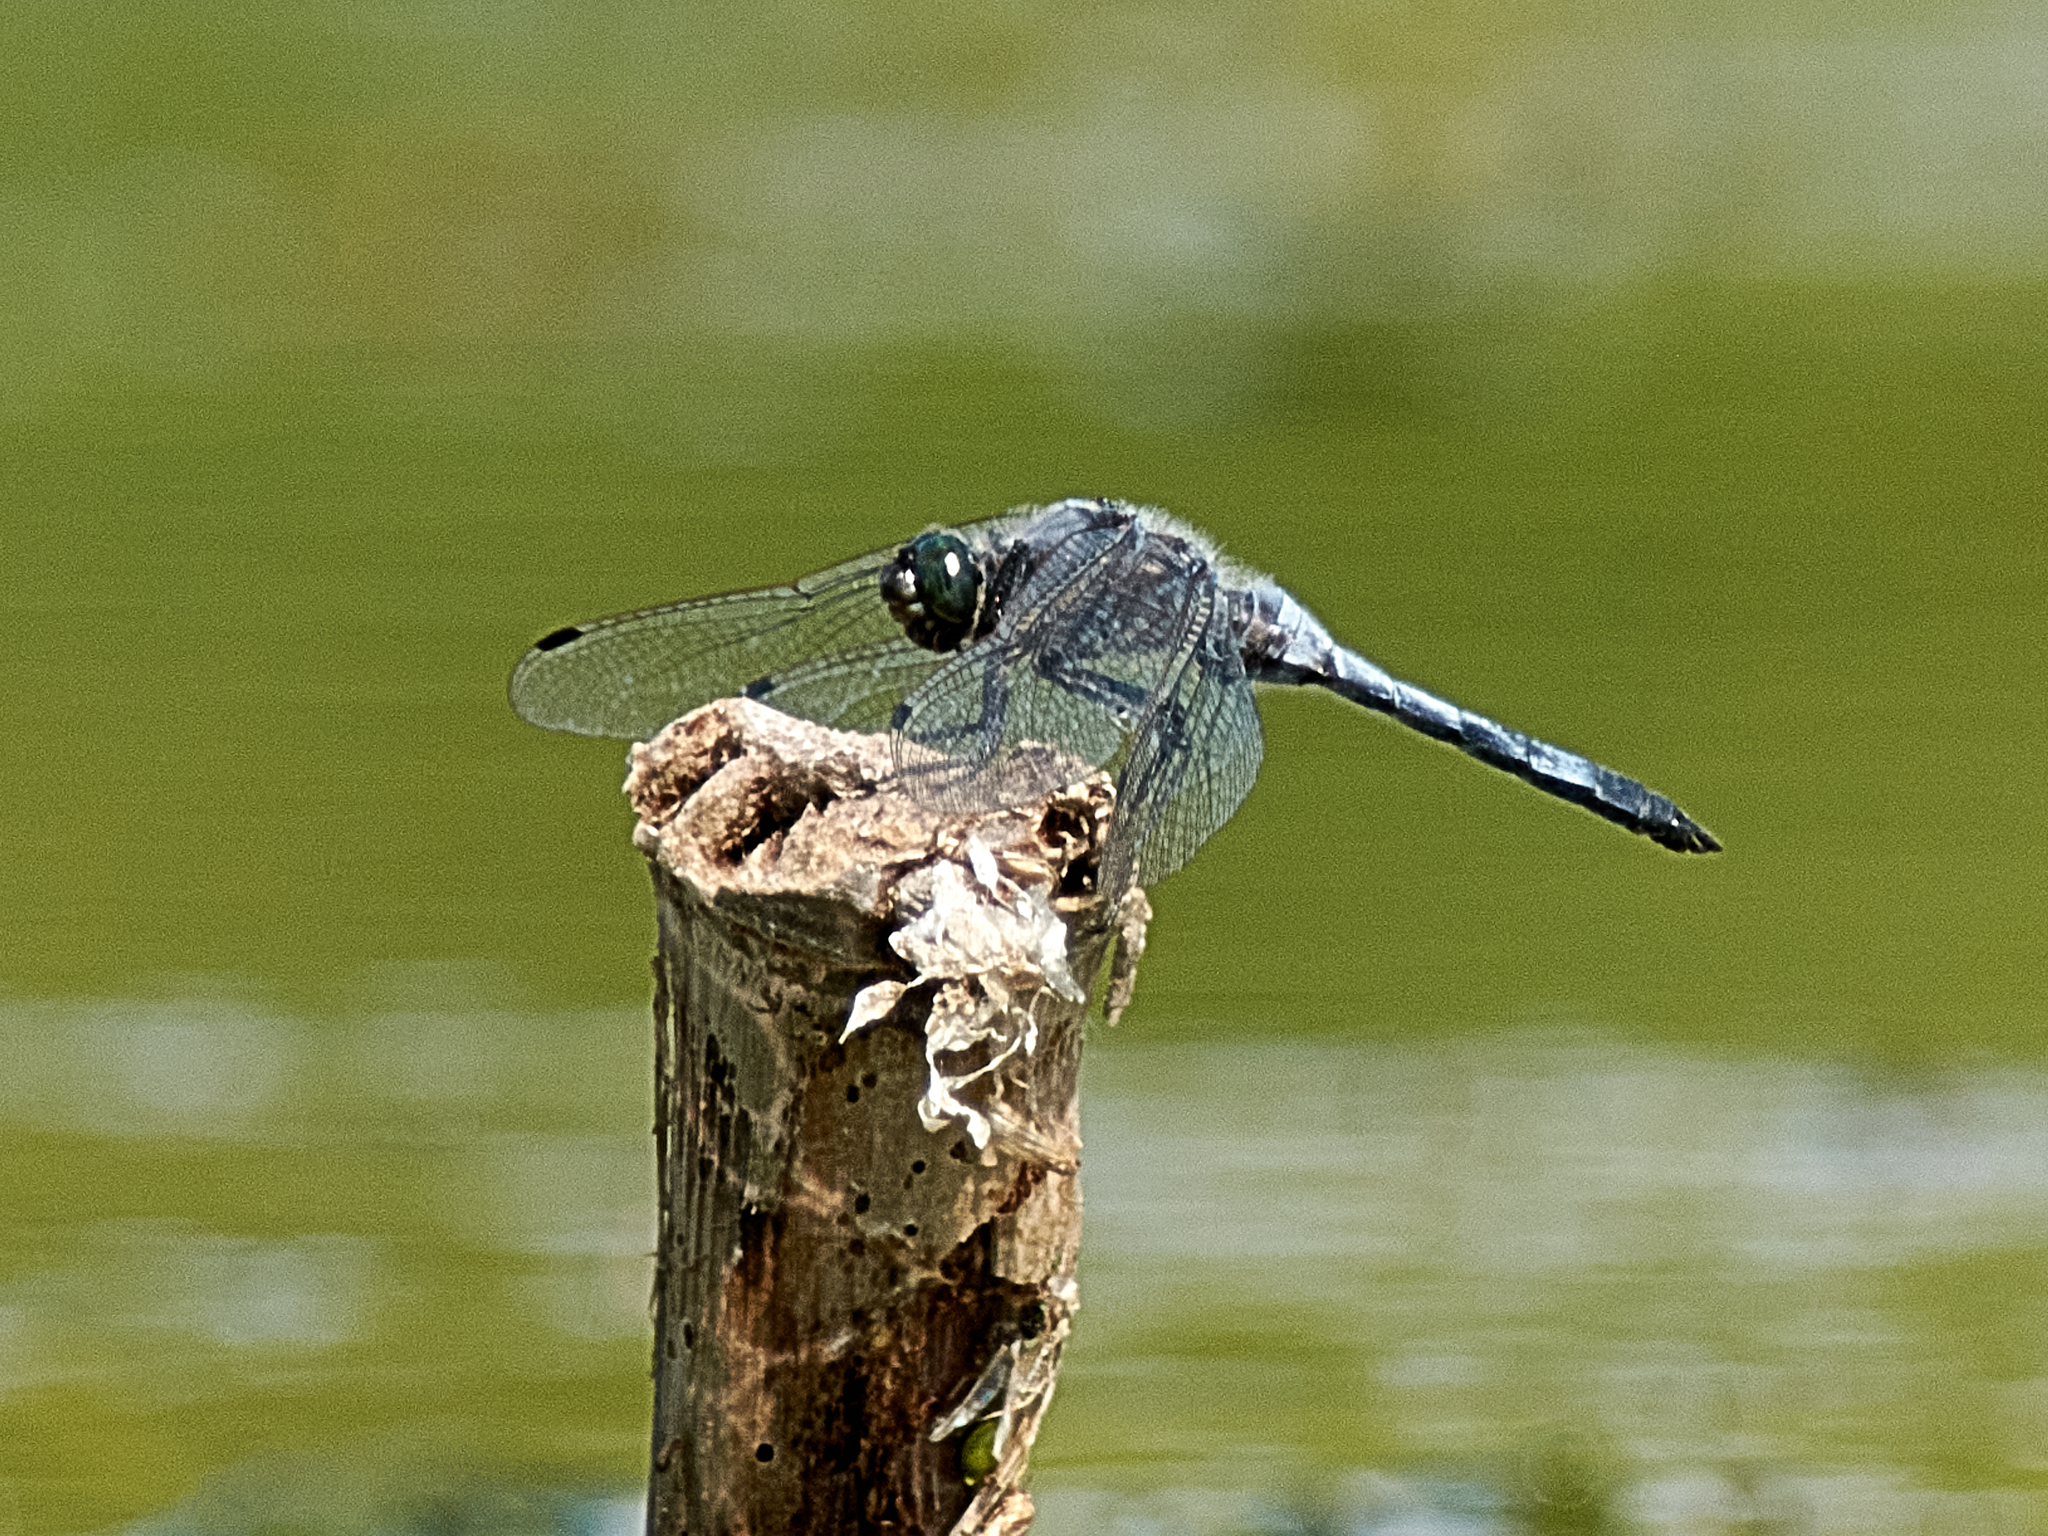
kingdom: Animalia
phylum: Arthropoda
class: Insecta
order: Odonata
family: Libellulidae
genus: Orthetrum
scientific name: Orthetrum cancellatum
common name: Black-tailed skimmer
